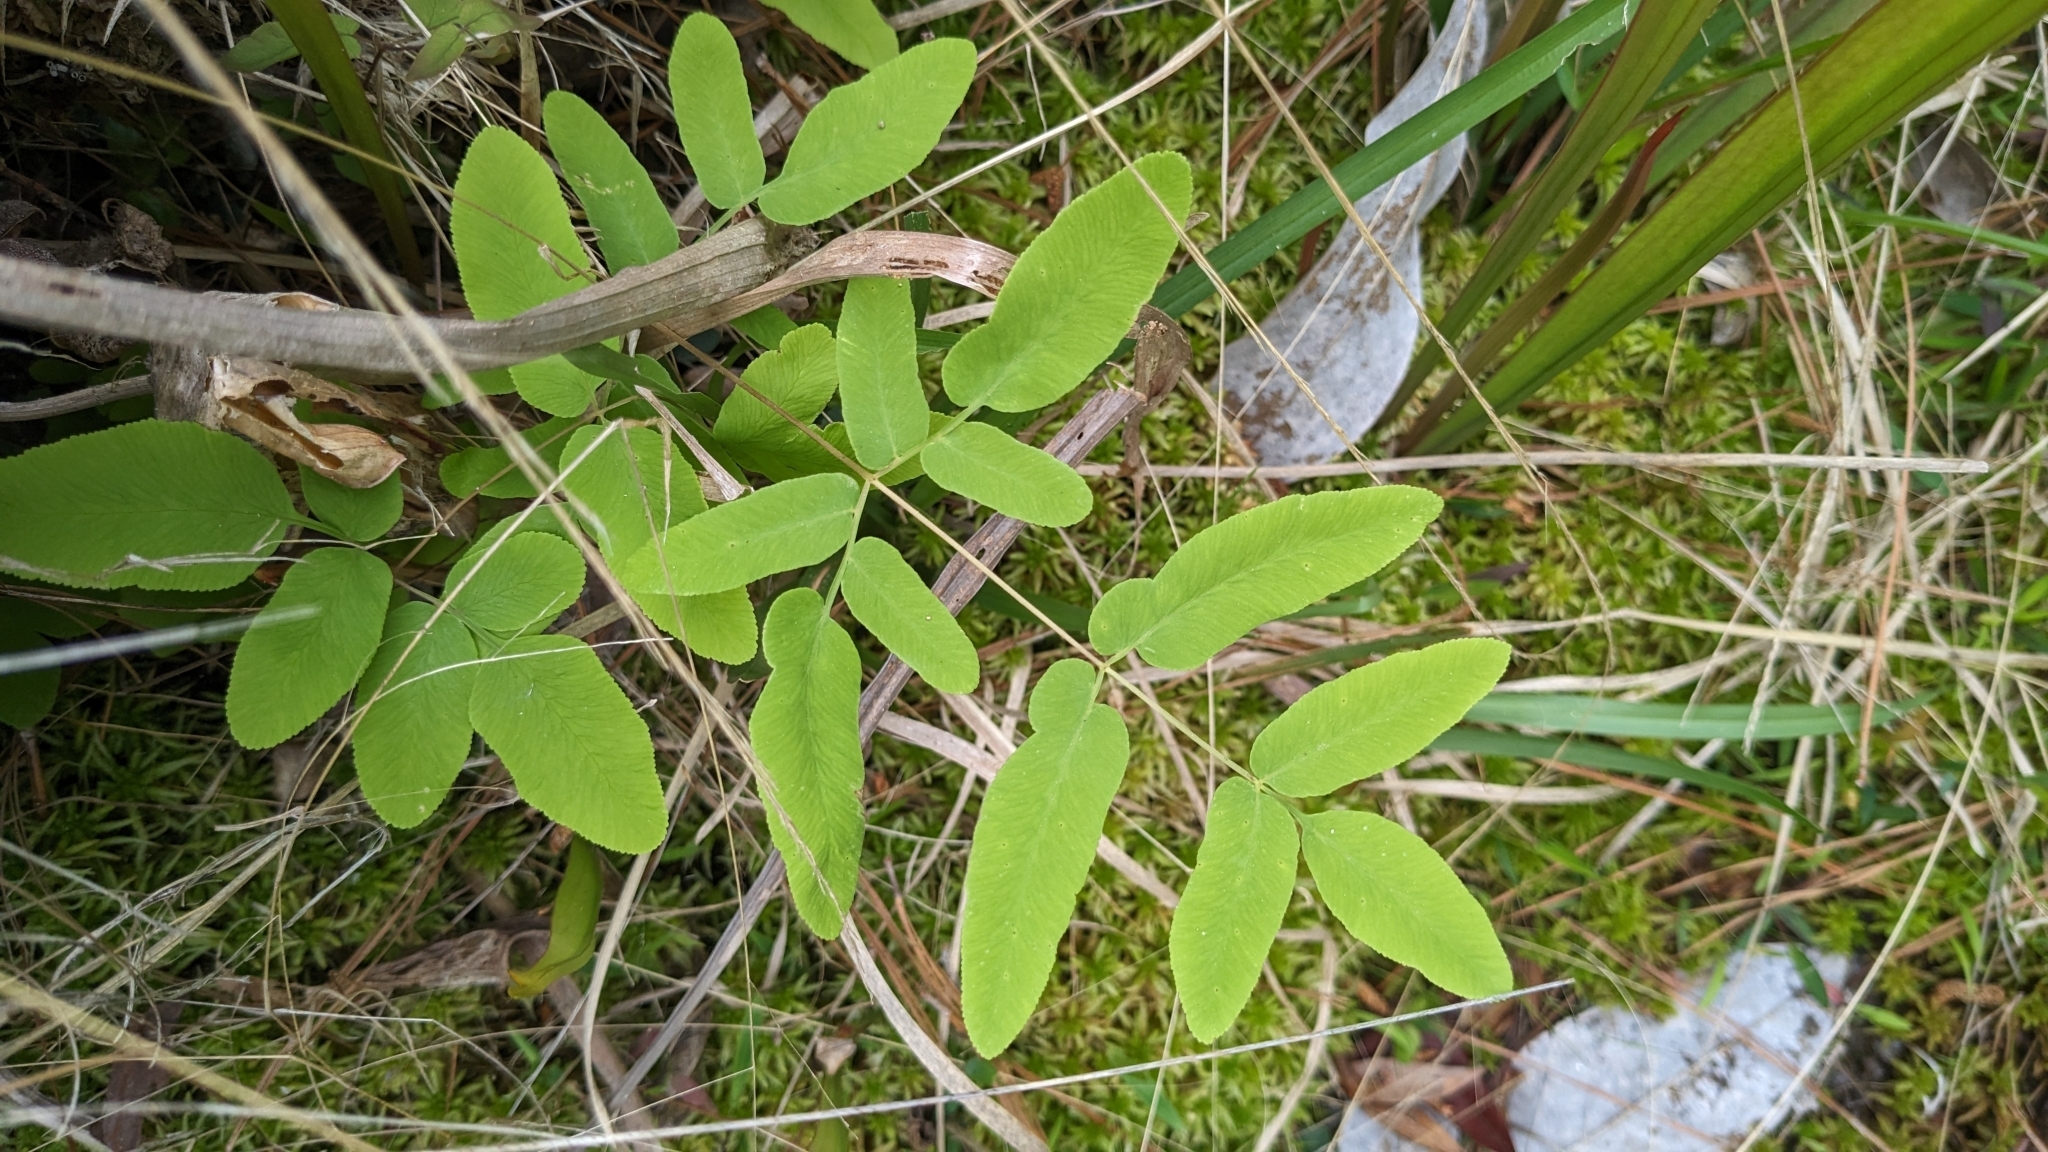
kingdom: Plantae
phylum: Tracheophyta
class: Polypodiopsida
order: Osmundales
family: Osmundaceae
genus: Osmunda
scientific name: Osmunda spectabilis
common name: American royal fern
